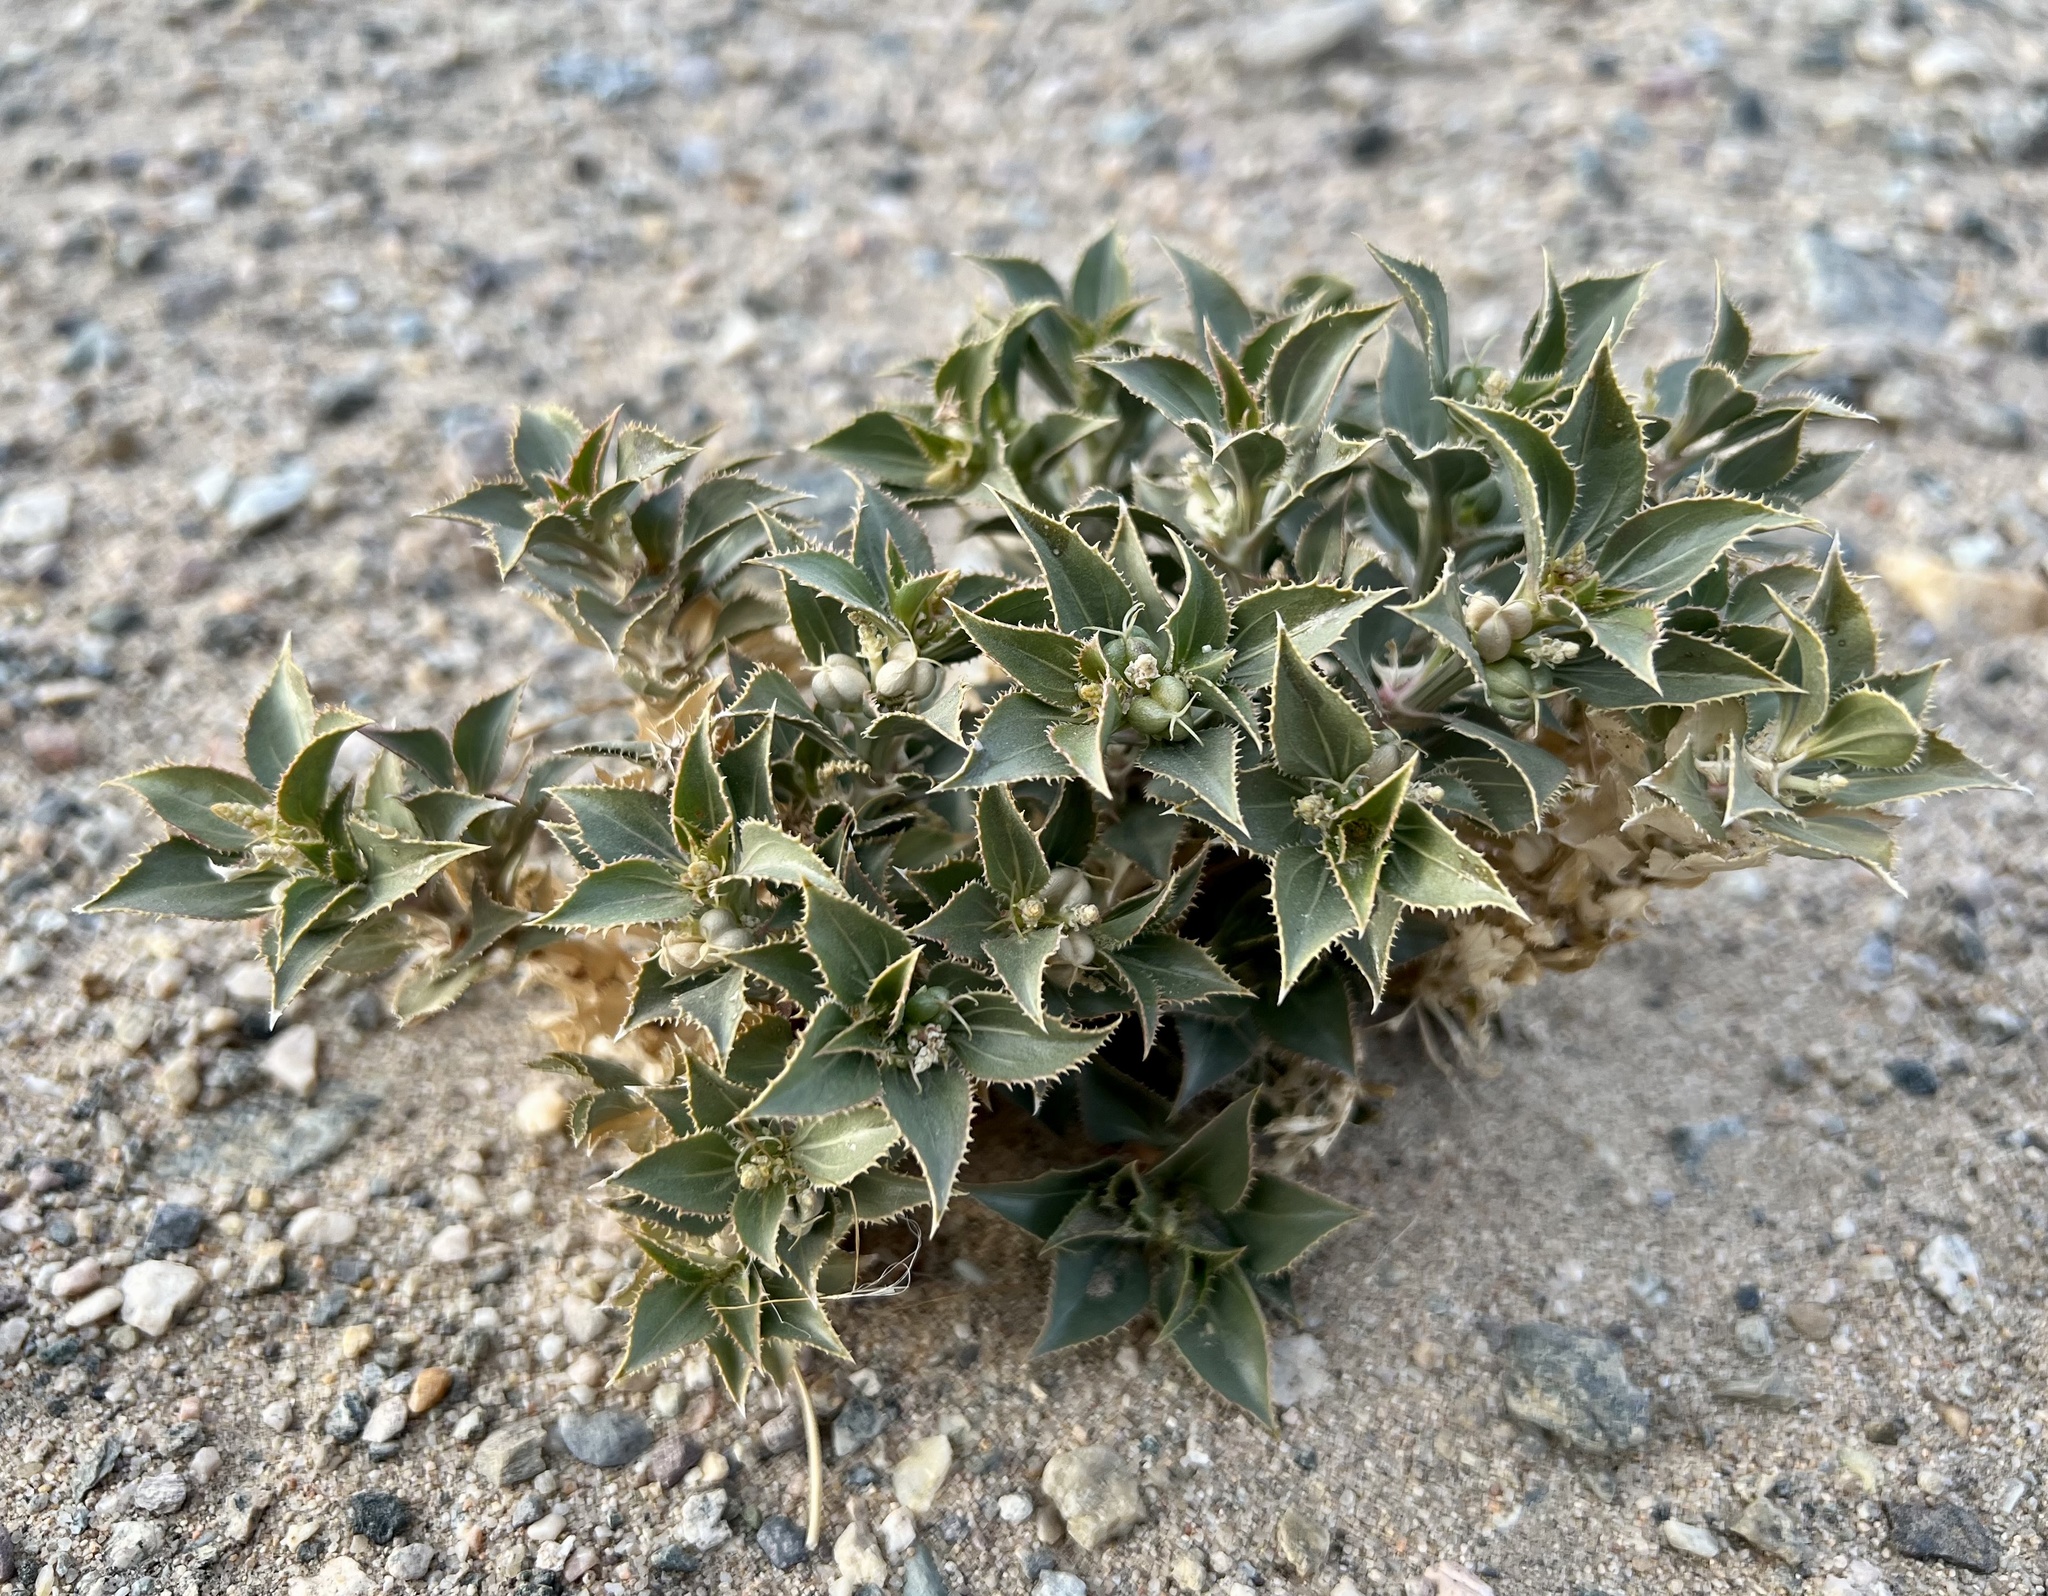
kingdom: Plantae
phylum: Tracheophyta
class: Magnoliopsida
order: Malpighiales
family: Euphorbiaceae
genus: Stillingia
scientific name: Stillingia spinulosa
